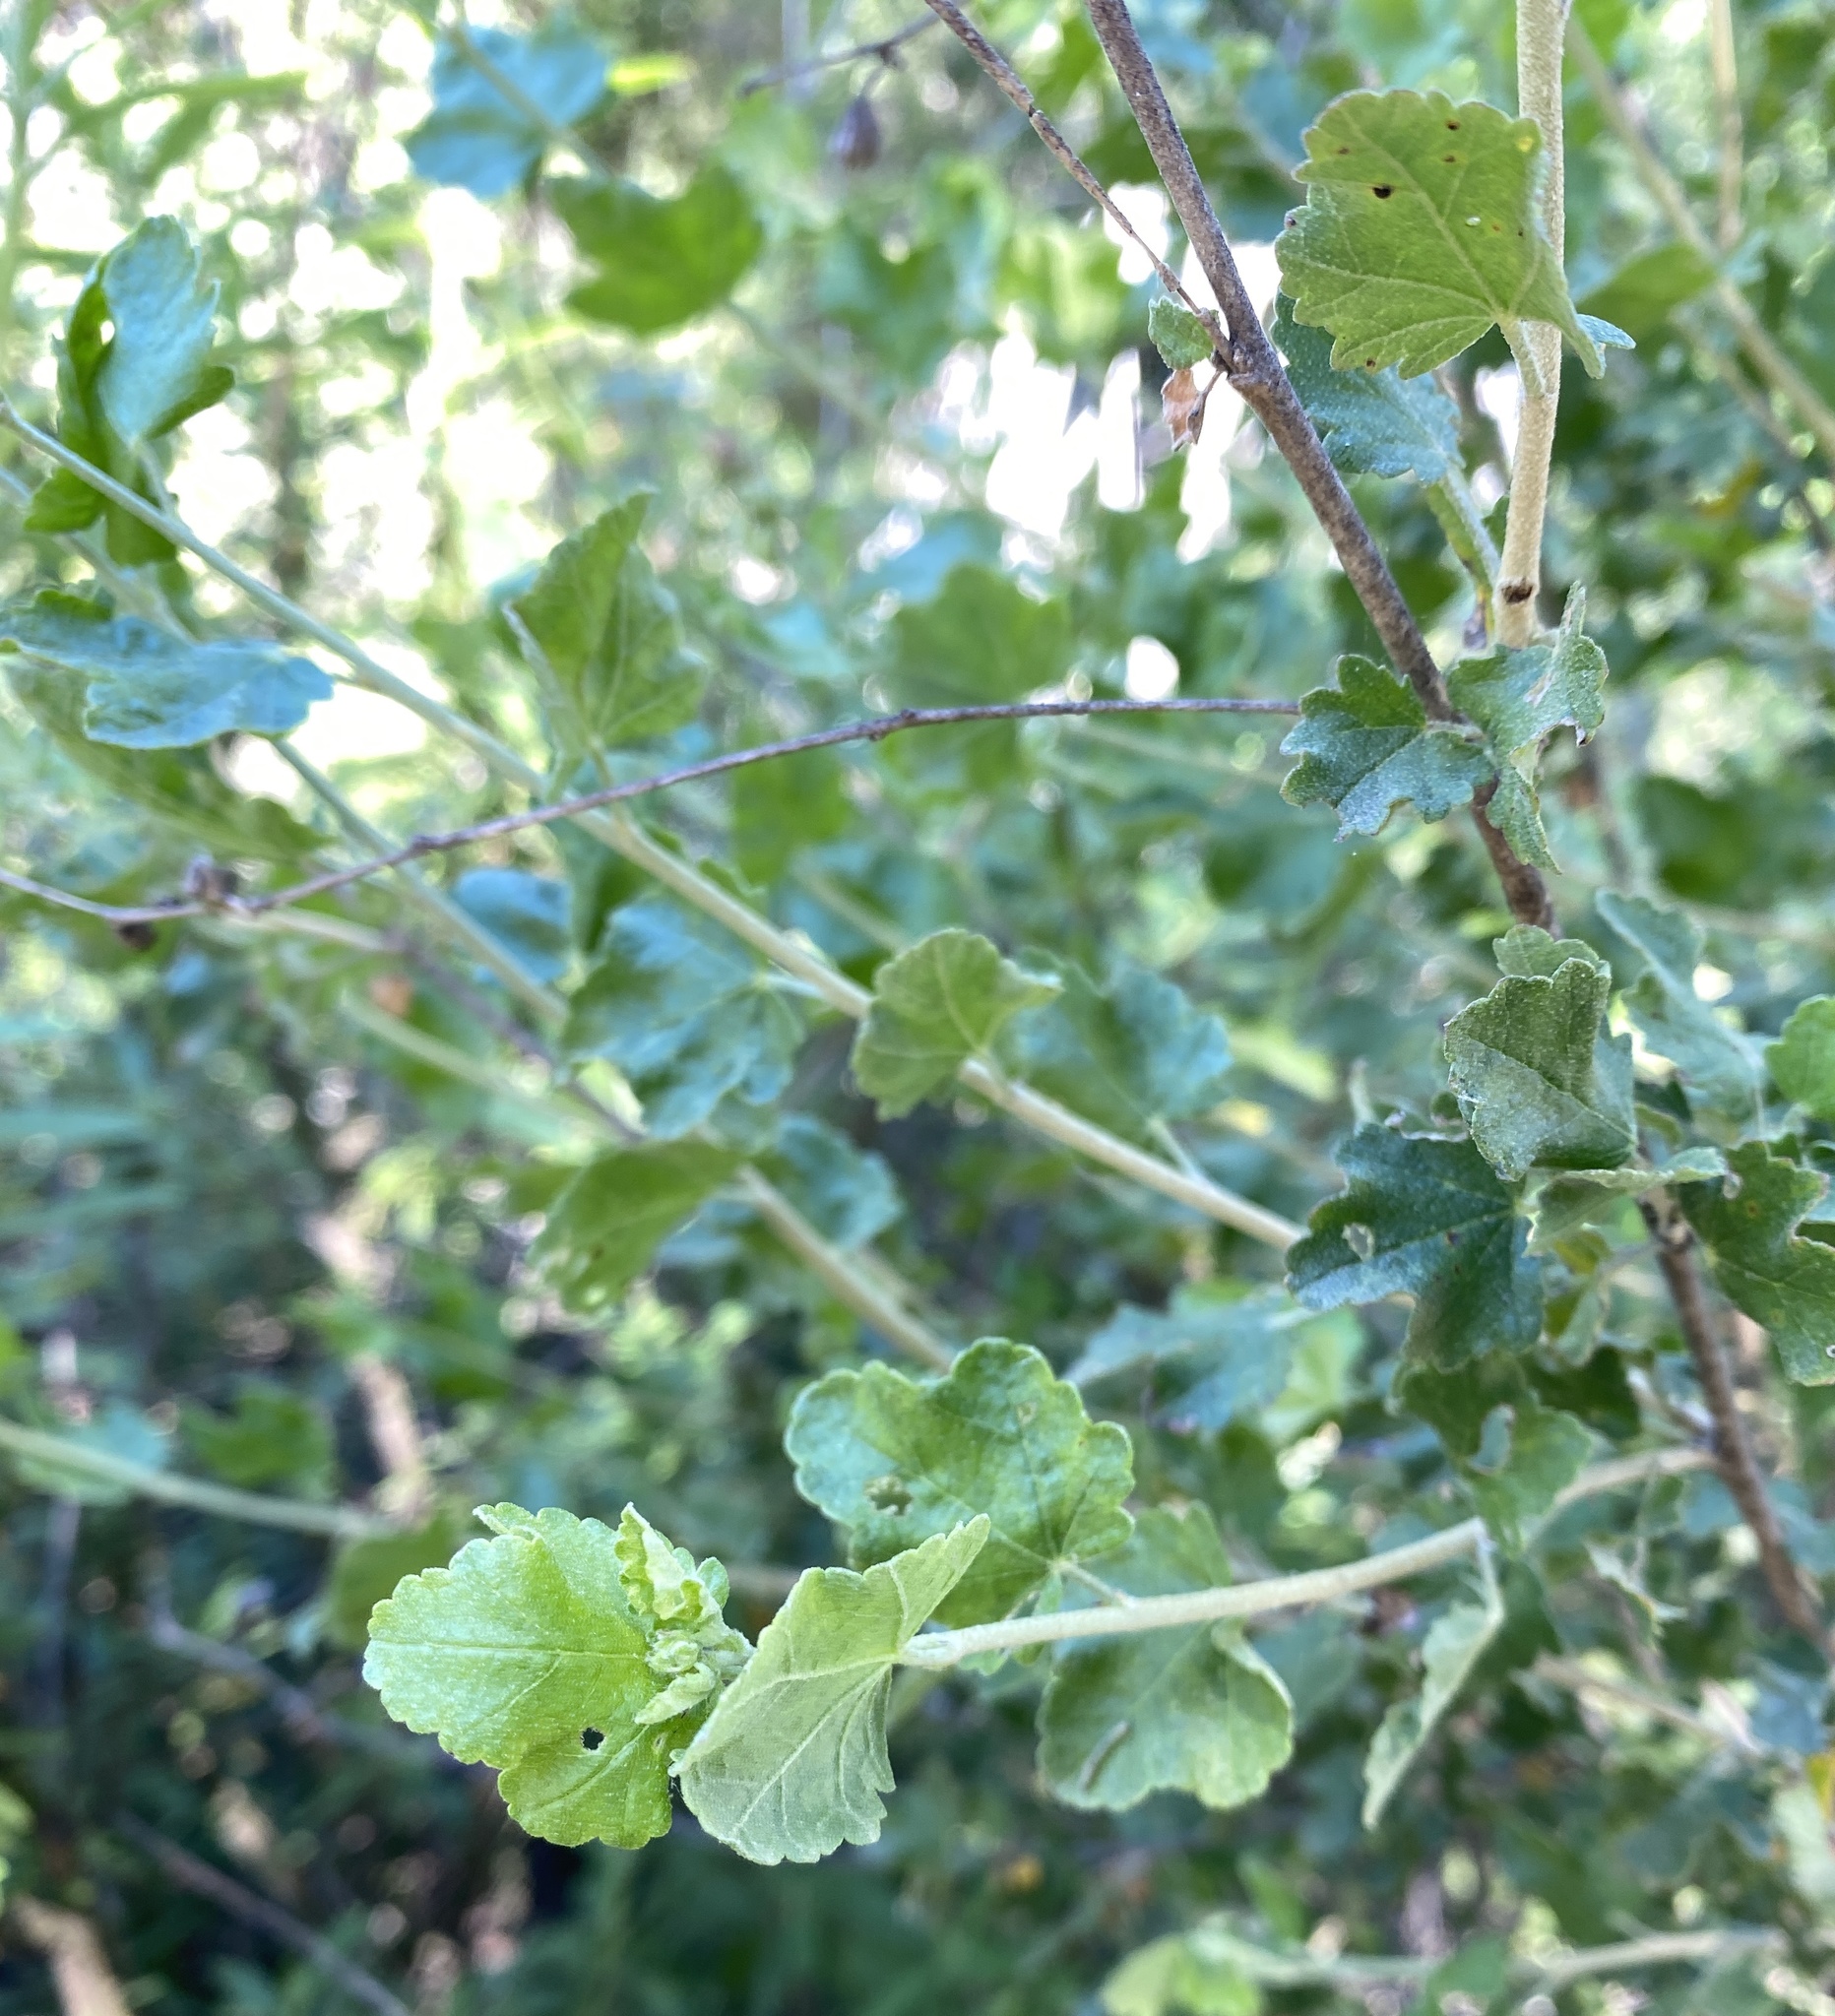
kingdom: Plantae
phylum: Tracheophyta
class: Magnoliopsida
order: Malvales
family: Malvaceae
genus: Malacothamnus
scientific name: Malacothamnus fasciculatus
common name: Sant cruz island bush-mallow
